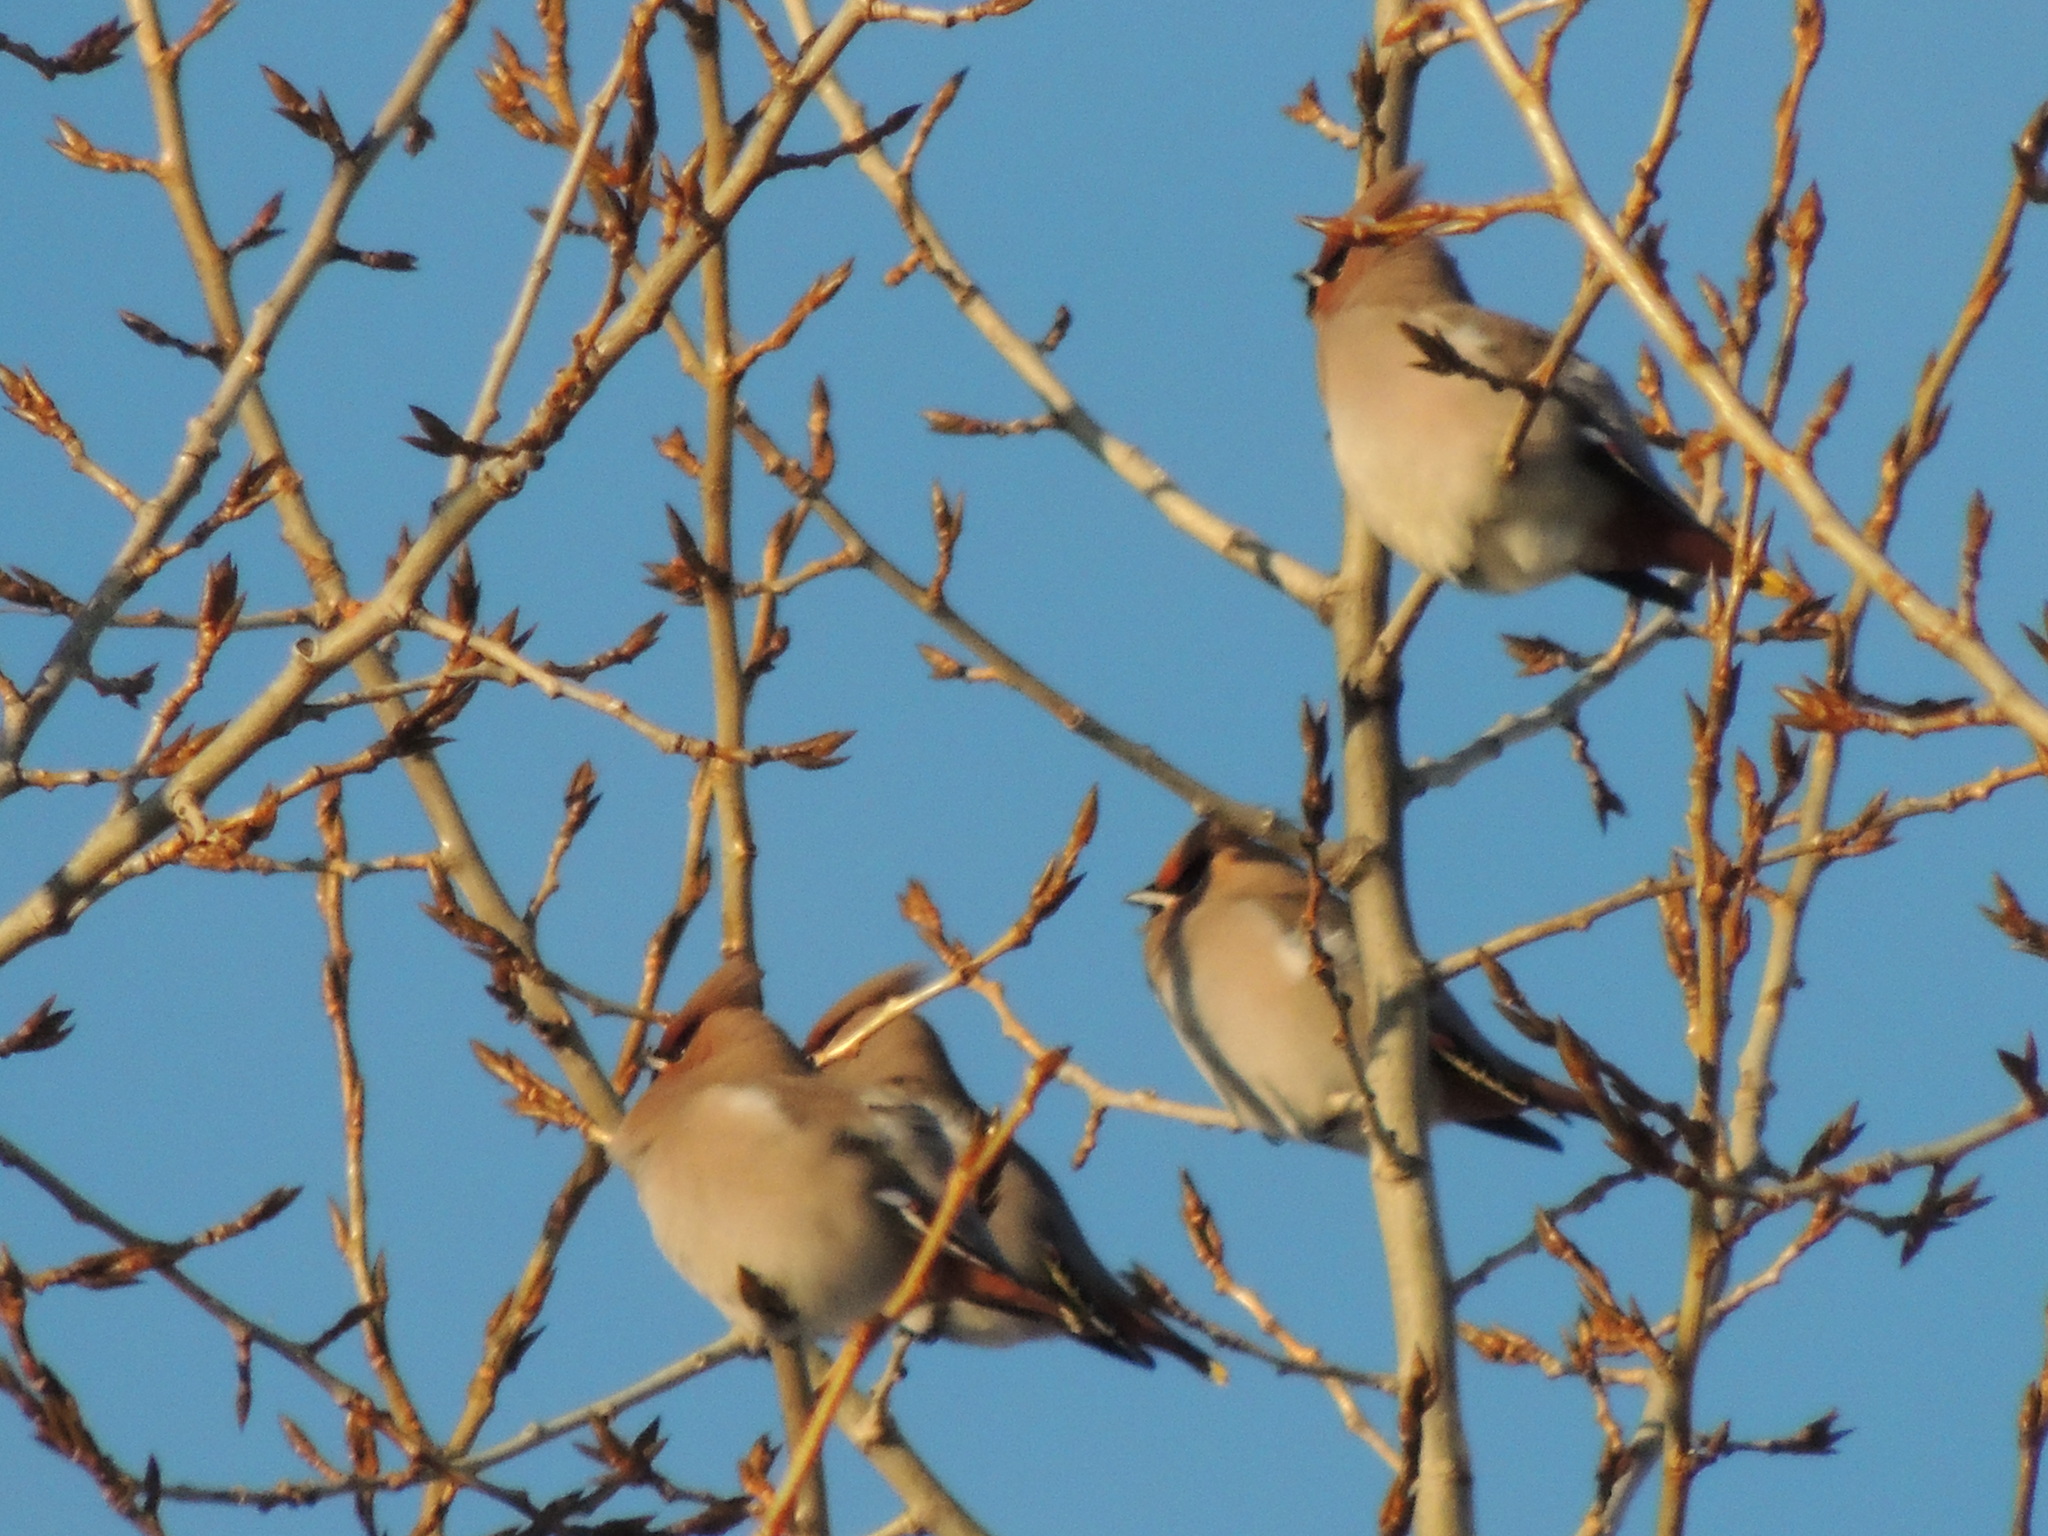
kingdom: Animalia
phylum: Chordata
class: Aves
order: Passeriformes
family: Bombycillidae
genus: Bombycilla
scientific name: Bombycilla garrulus
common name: Bohemian waxwing
